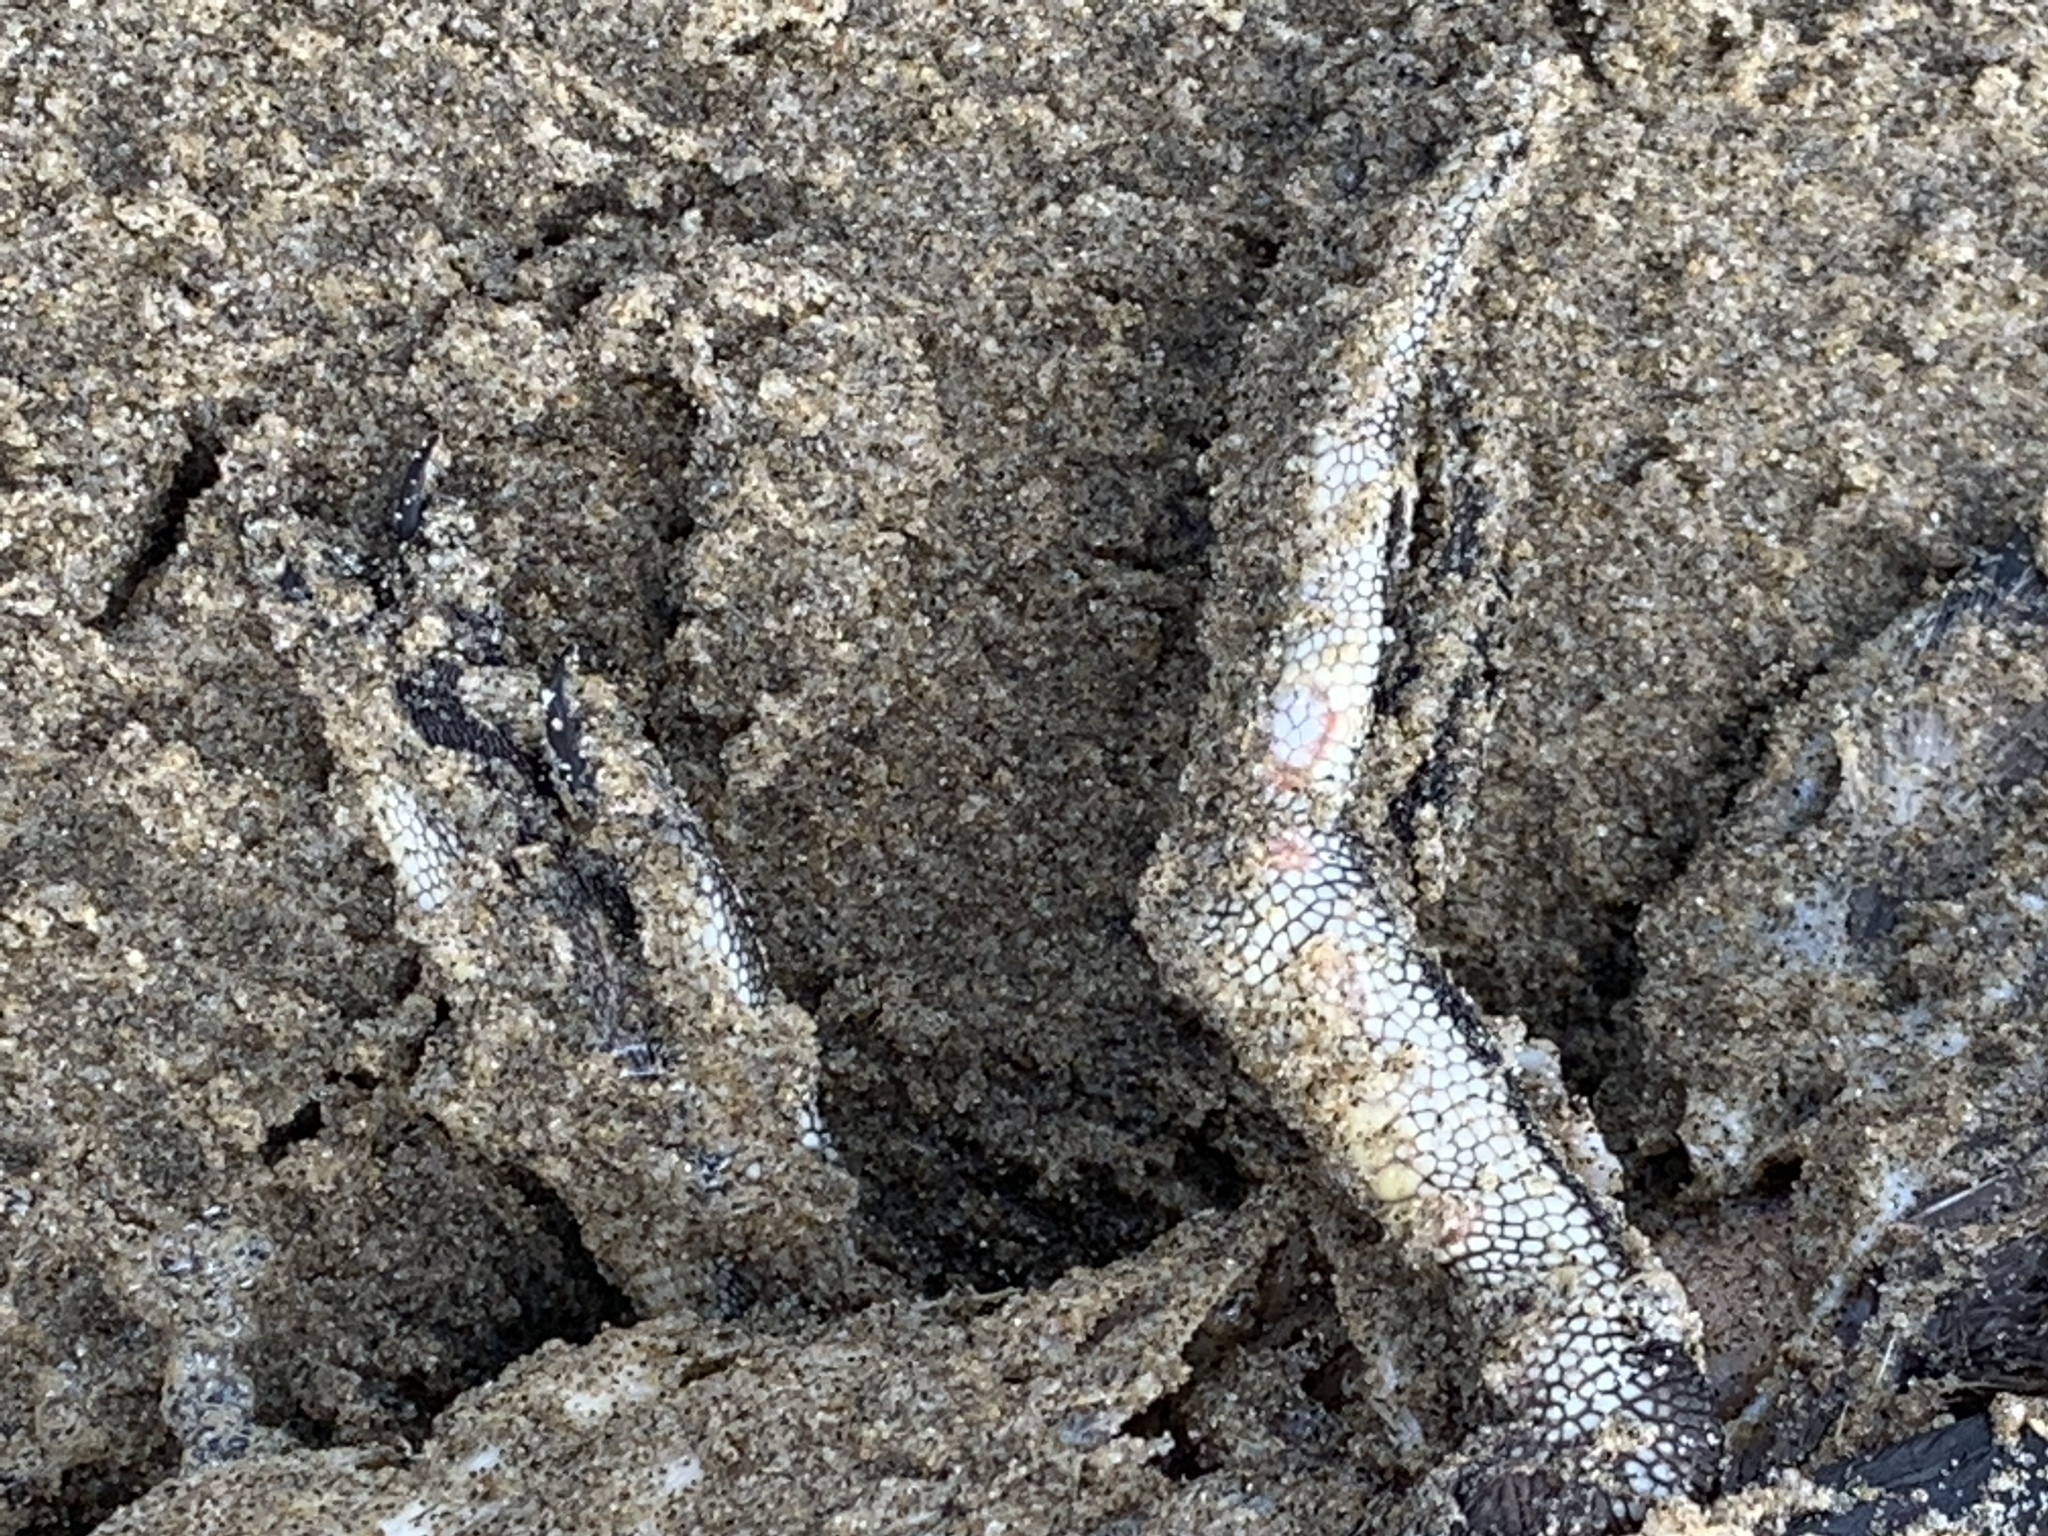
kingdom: Animalia
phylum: Chordata
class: Aves
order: Charadriiformes
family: Alcidae
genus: Cerorhinca
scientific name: Cerorhinca monocerata
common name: Rhinoceros auklet
